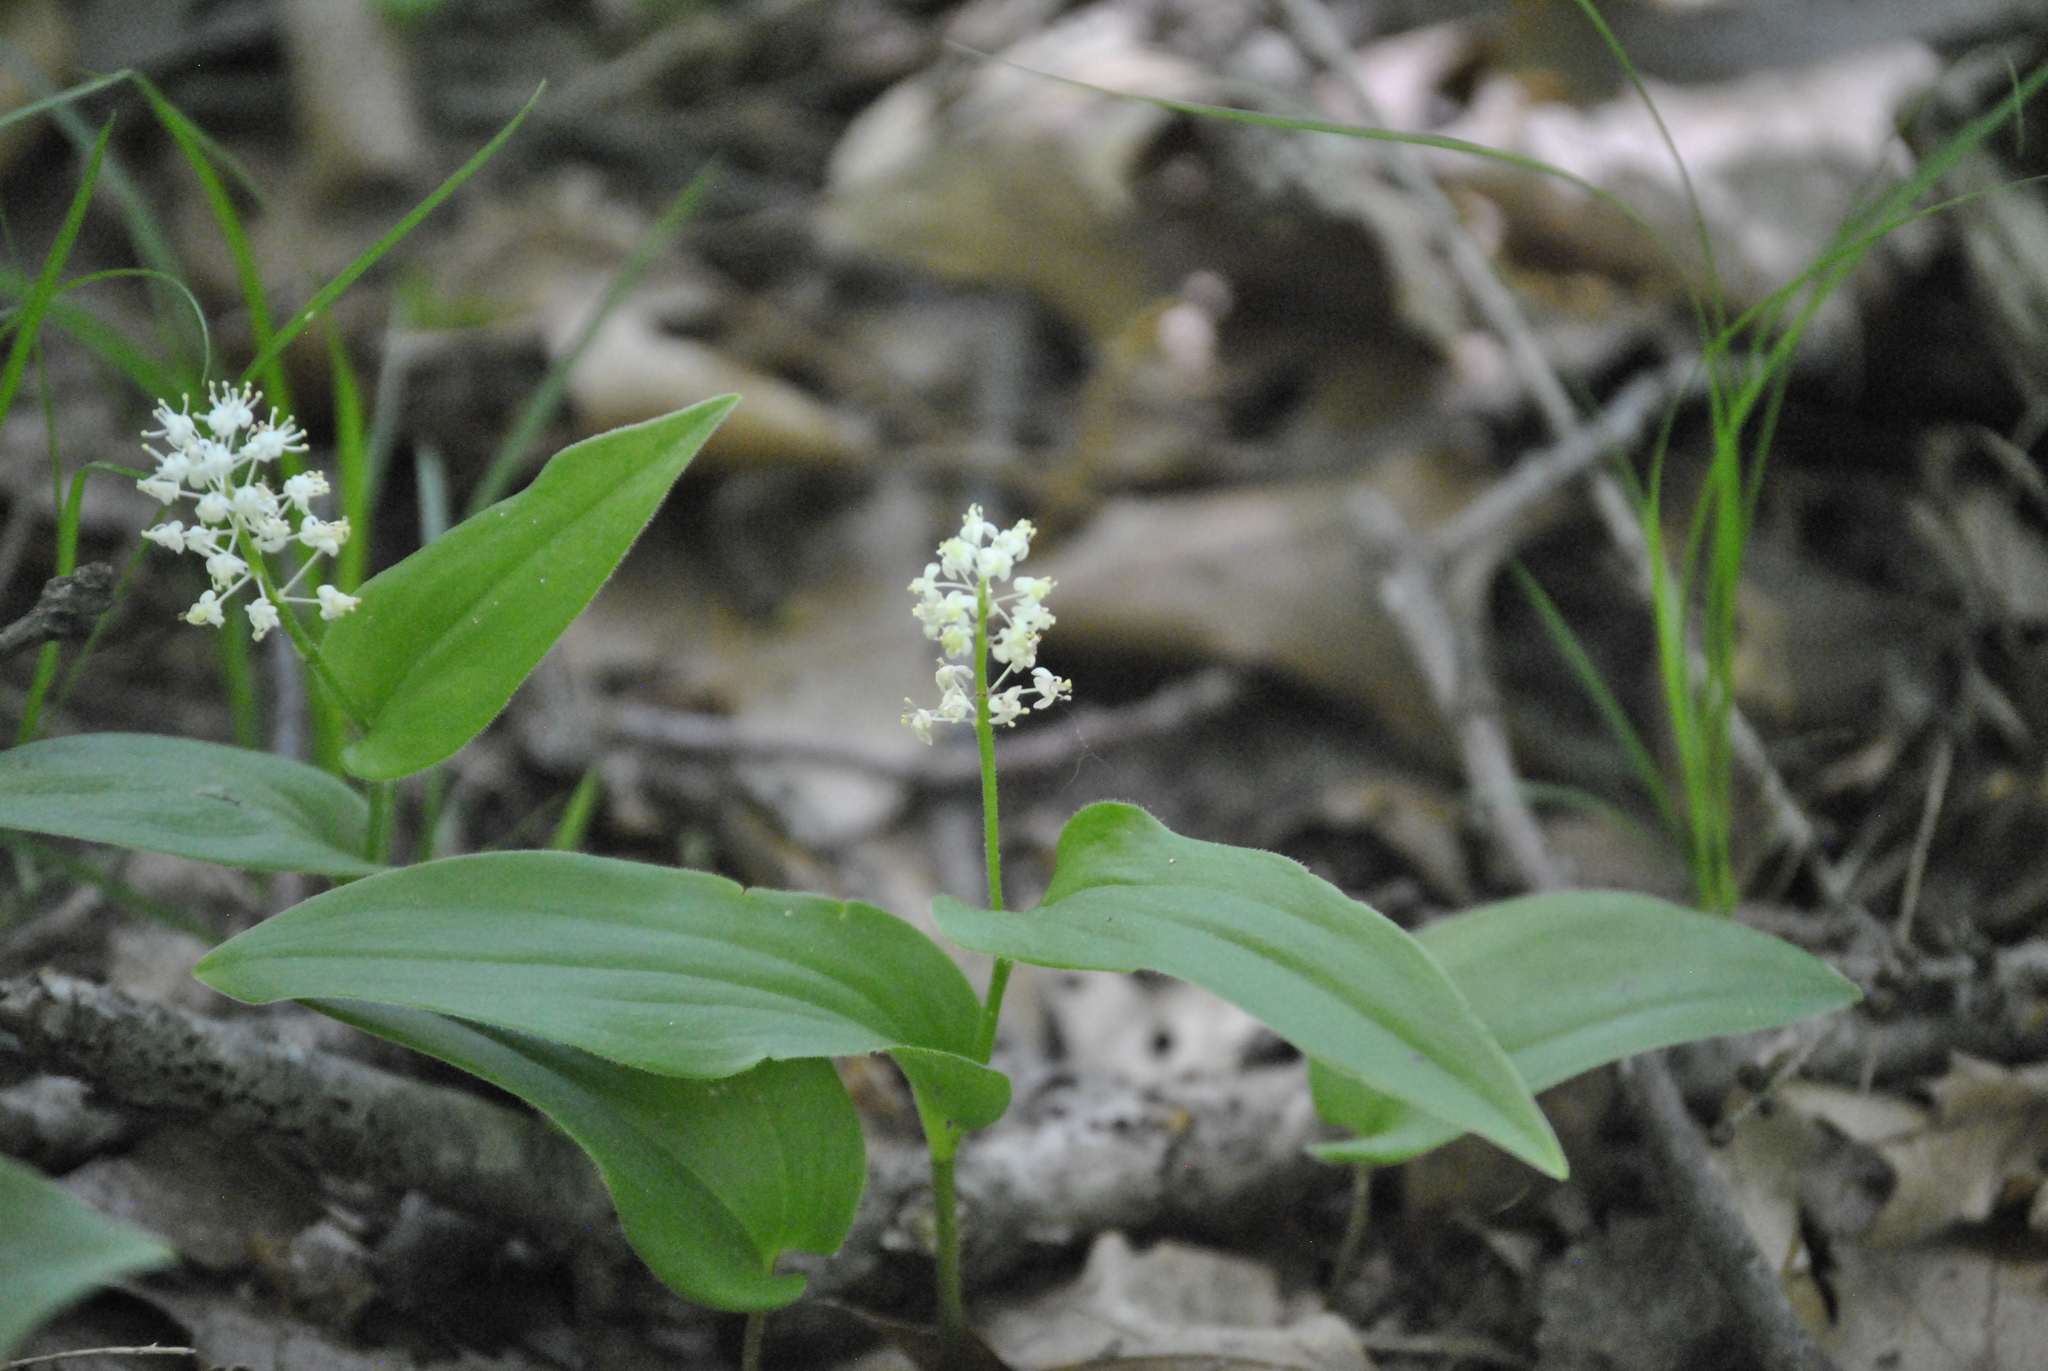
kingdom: Plantae
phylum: Tracheophyta
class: Liliopsida
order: Asparagales
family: Asparagaceae
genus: Maianthemum
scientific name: Maianthemum canadense
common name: False lily-of-the-valley
